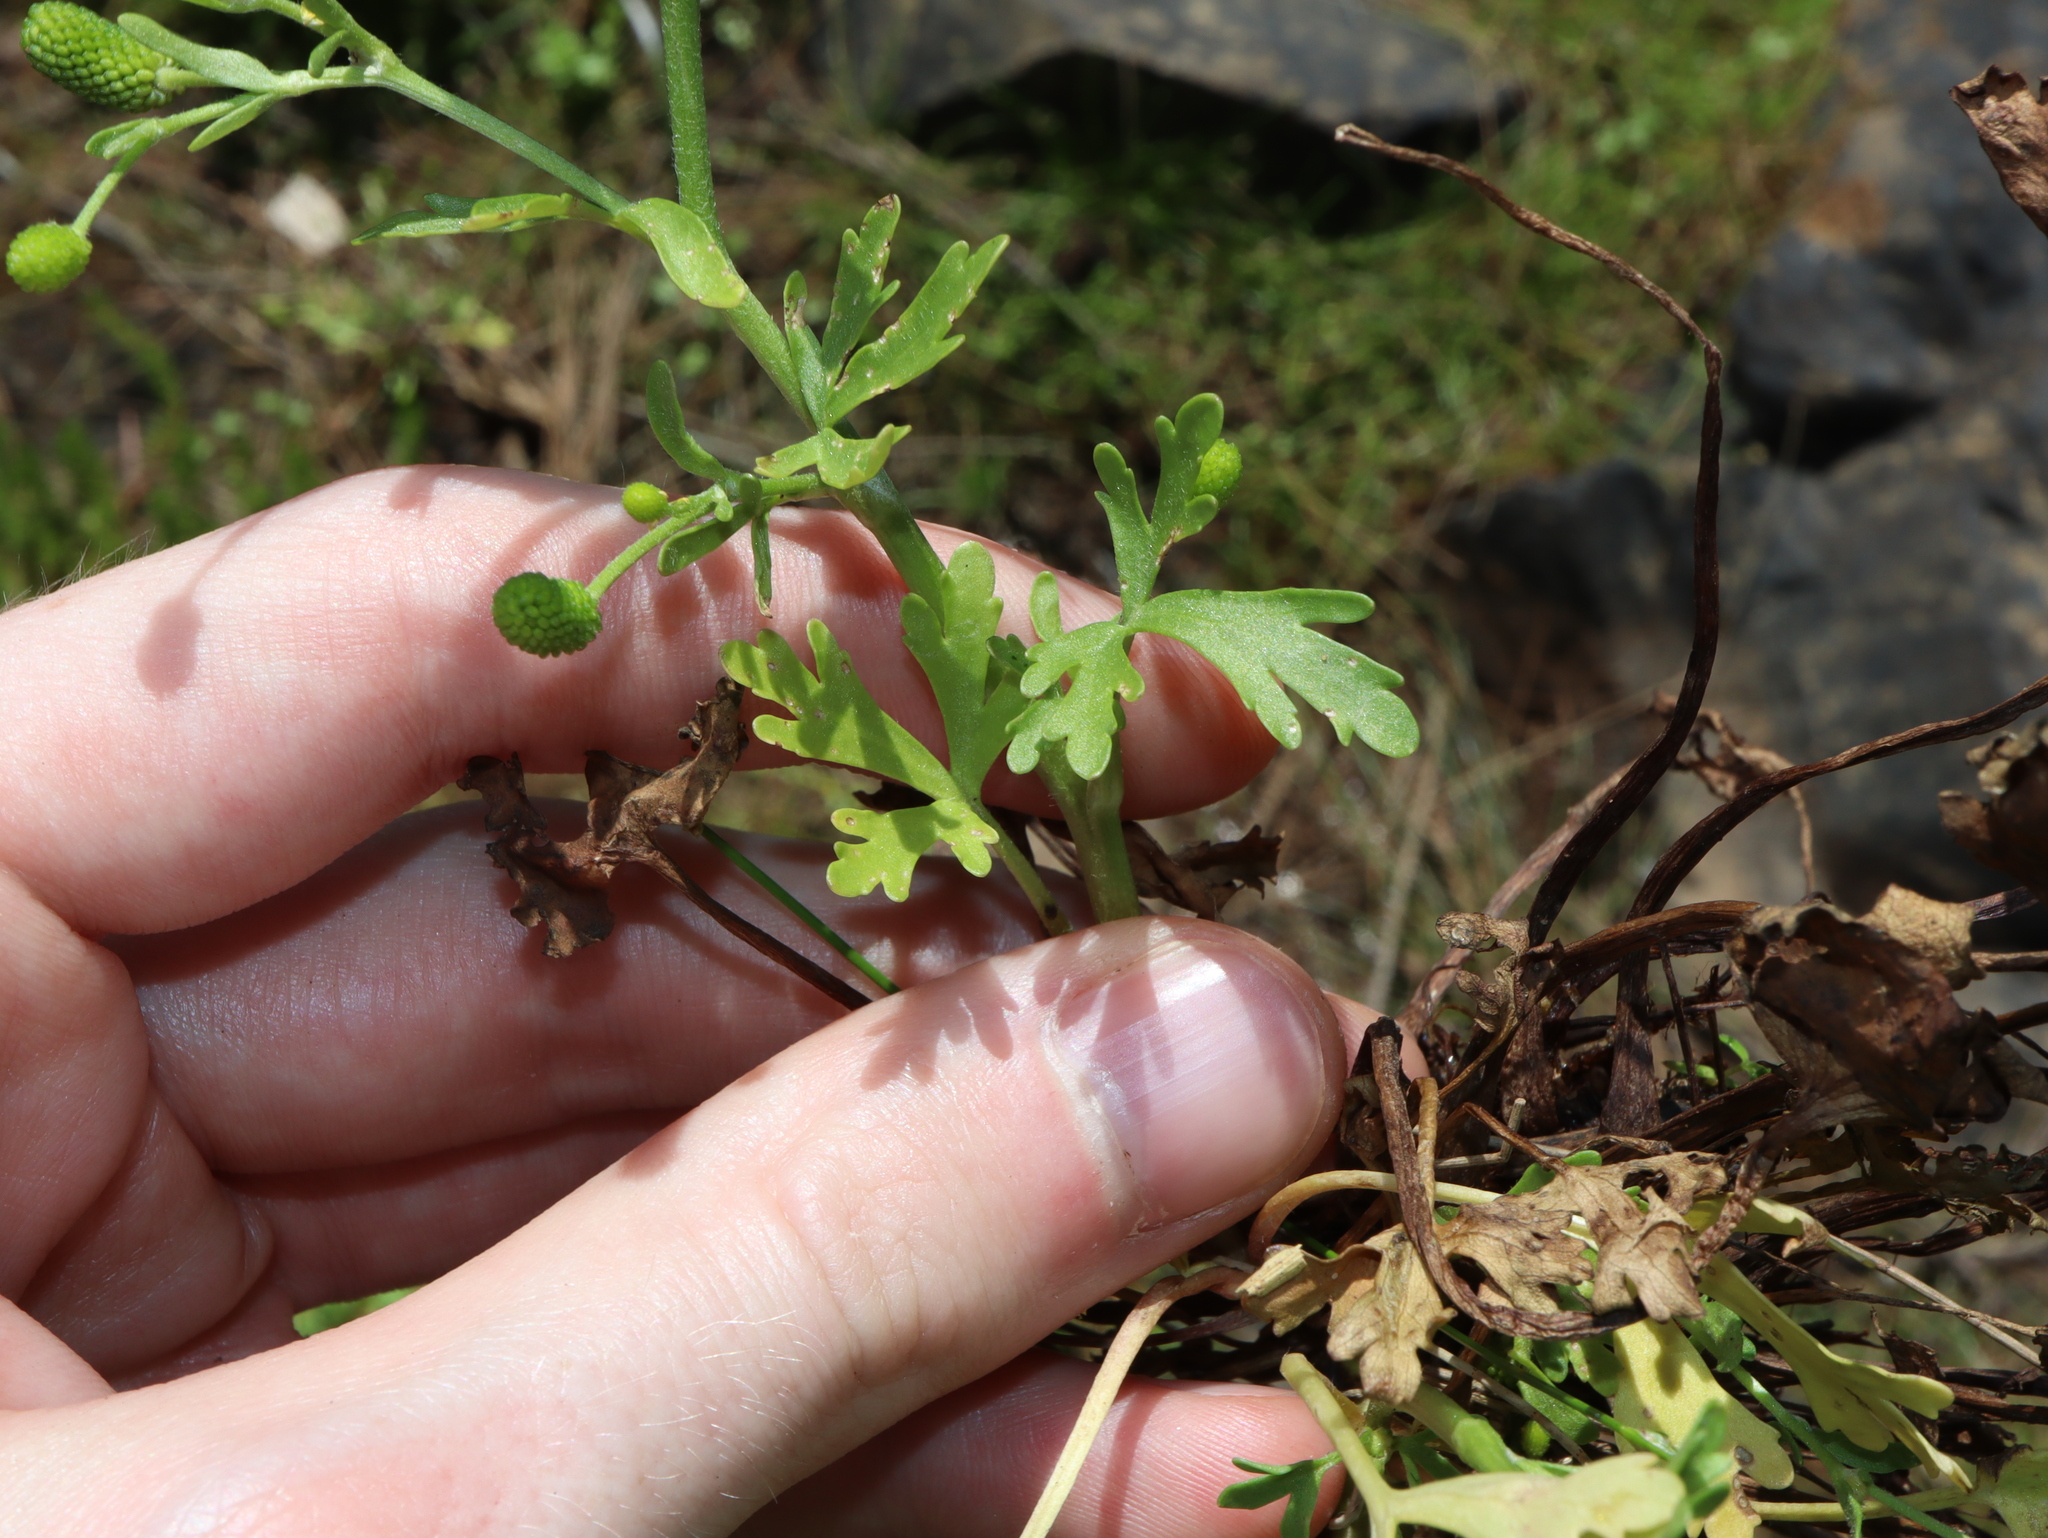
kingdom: Plantae
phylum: Tracheophyta
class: Magnoliopsida
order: Ranunculales
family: Ranunculaceae
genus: Ranunculus
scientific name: Ranunculus sceleratus
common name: Celery-leaved buttercup
